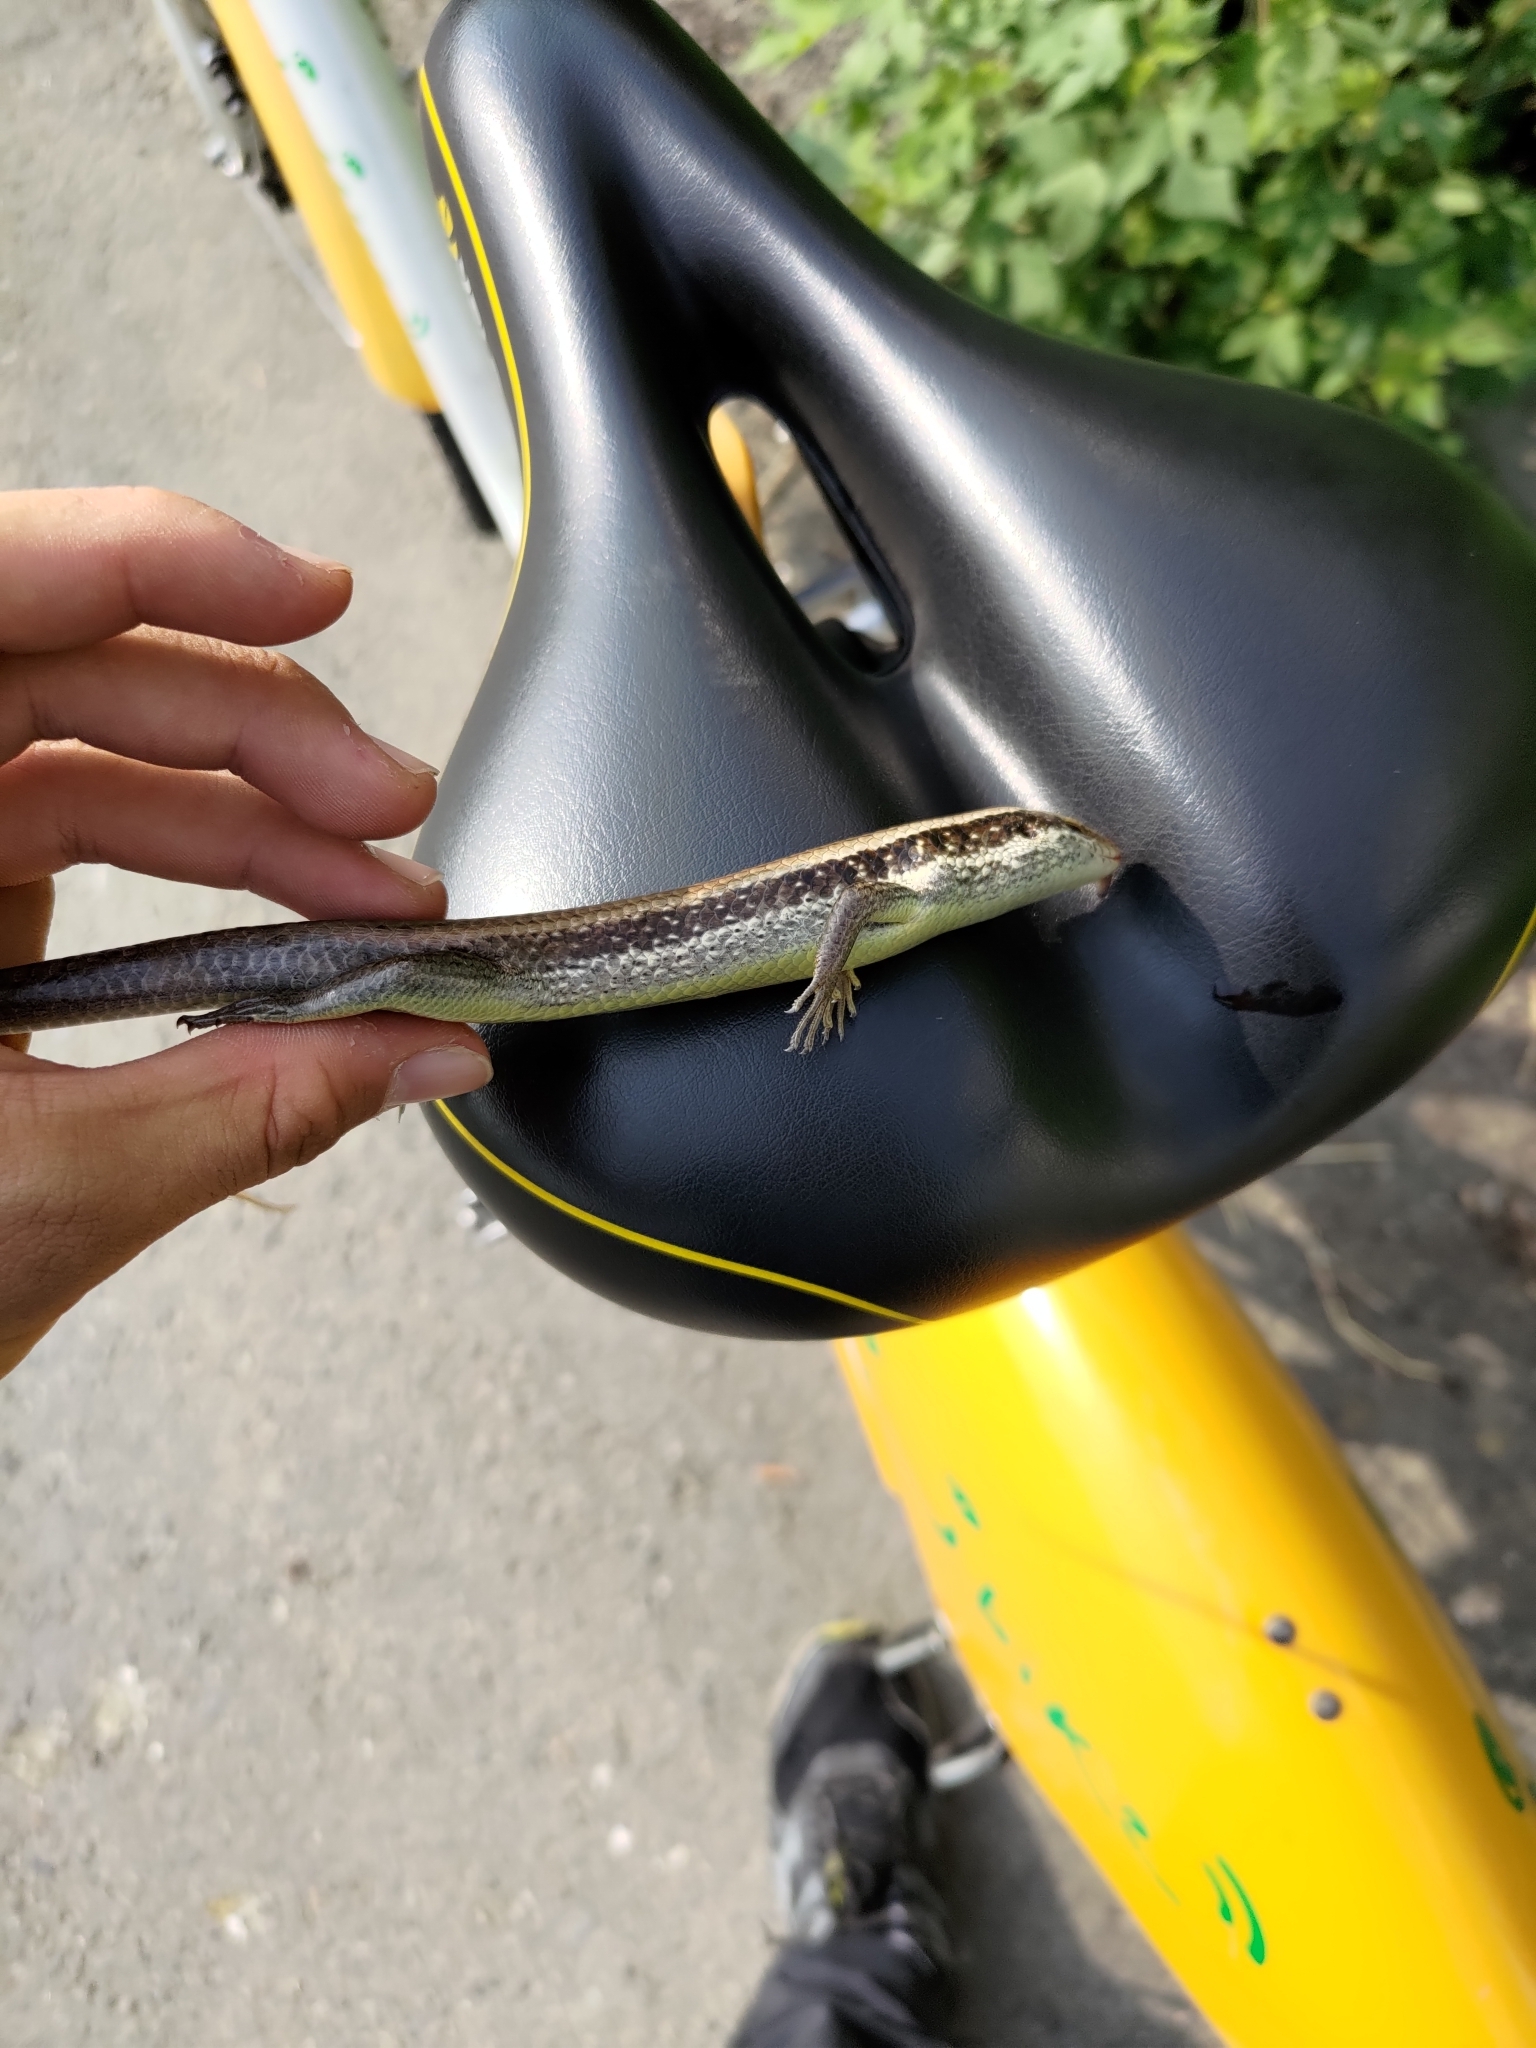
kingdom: Animalia
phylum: Chordata
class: Squamata
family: Scincidae
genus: Eutropis
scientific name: Eutropis longicaudata
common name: Long-tailed sun skink
